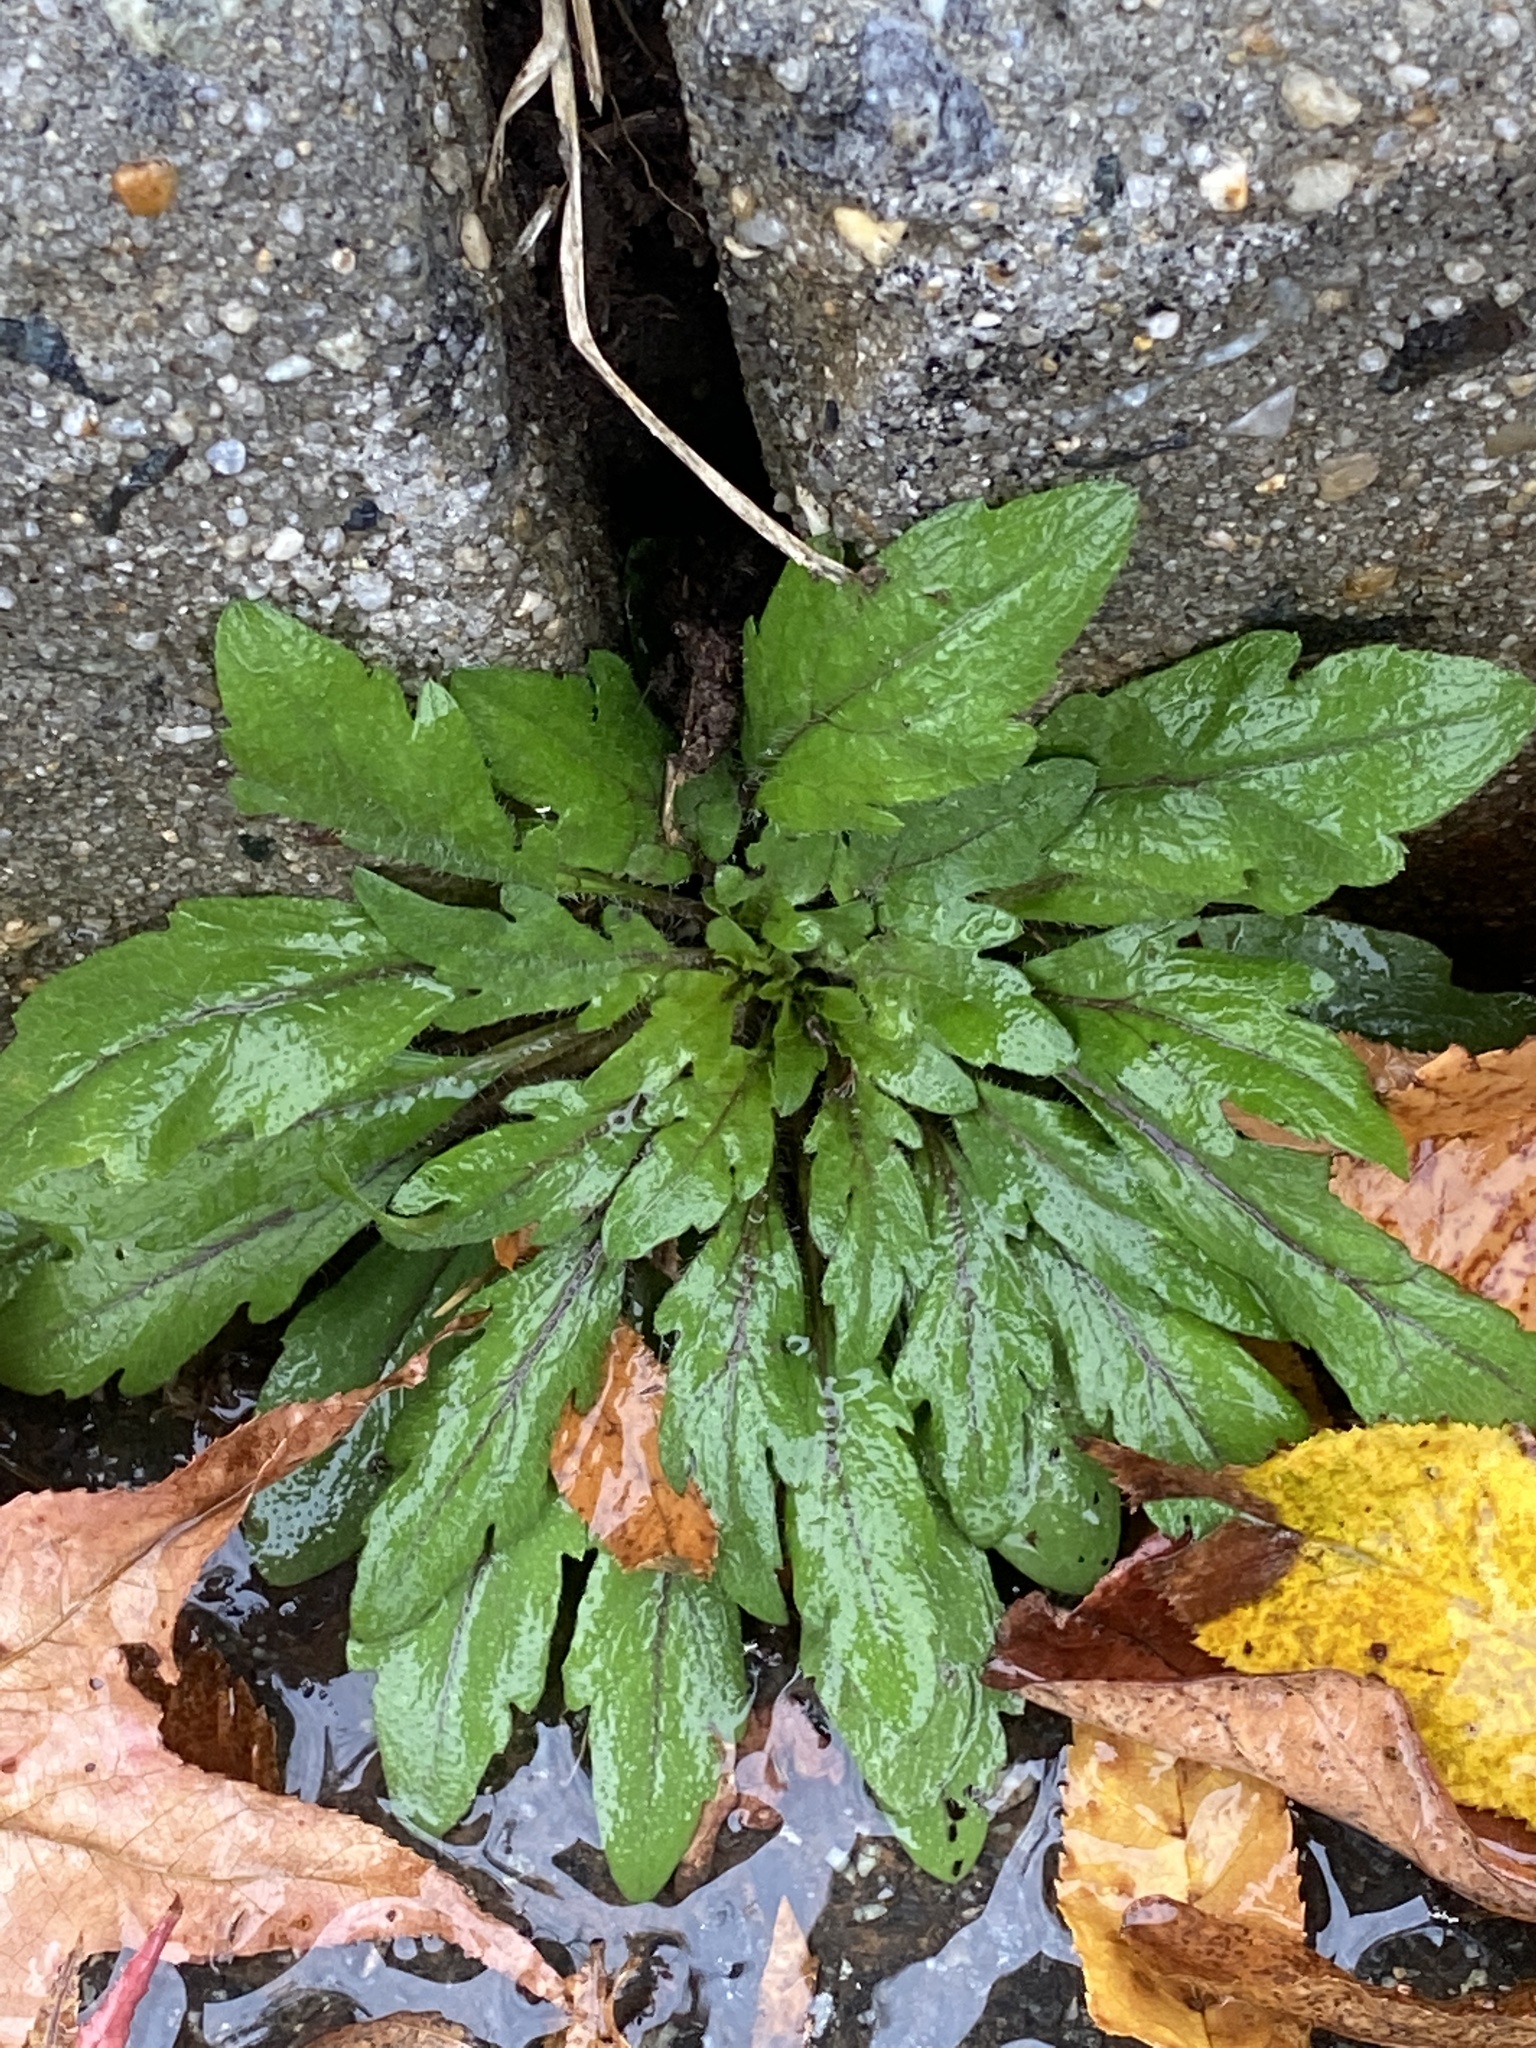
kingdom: Plantae
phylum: Tracheophyta
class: Magnoliopsida
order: Asterales
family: Asteraceae
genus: Erigeron
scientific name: Erigeron canadensis
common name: Canadian fleabane
